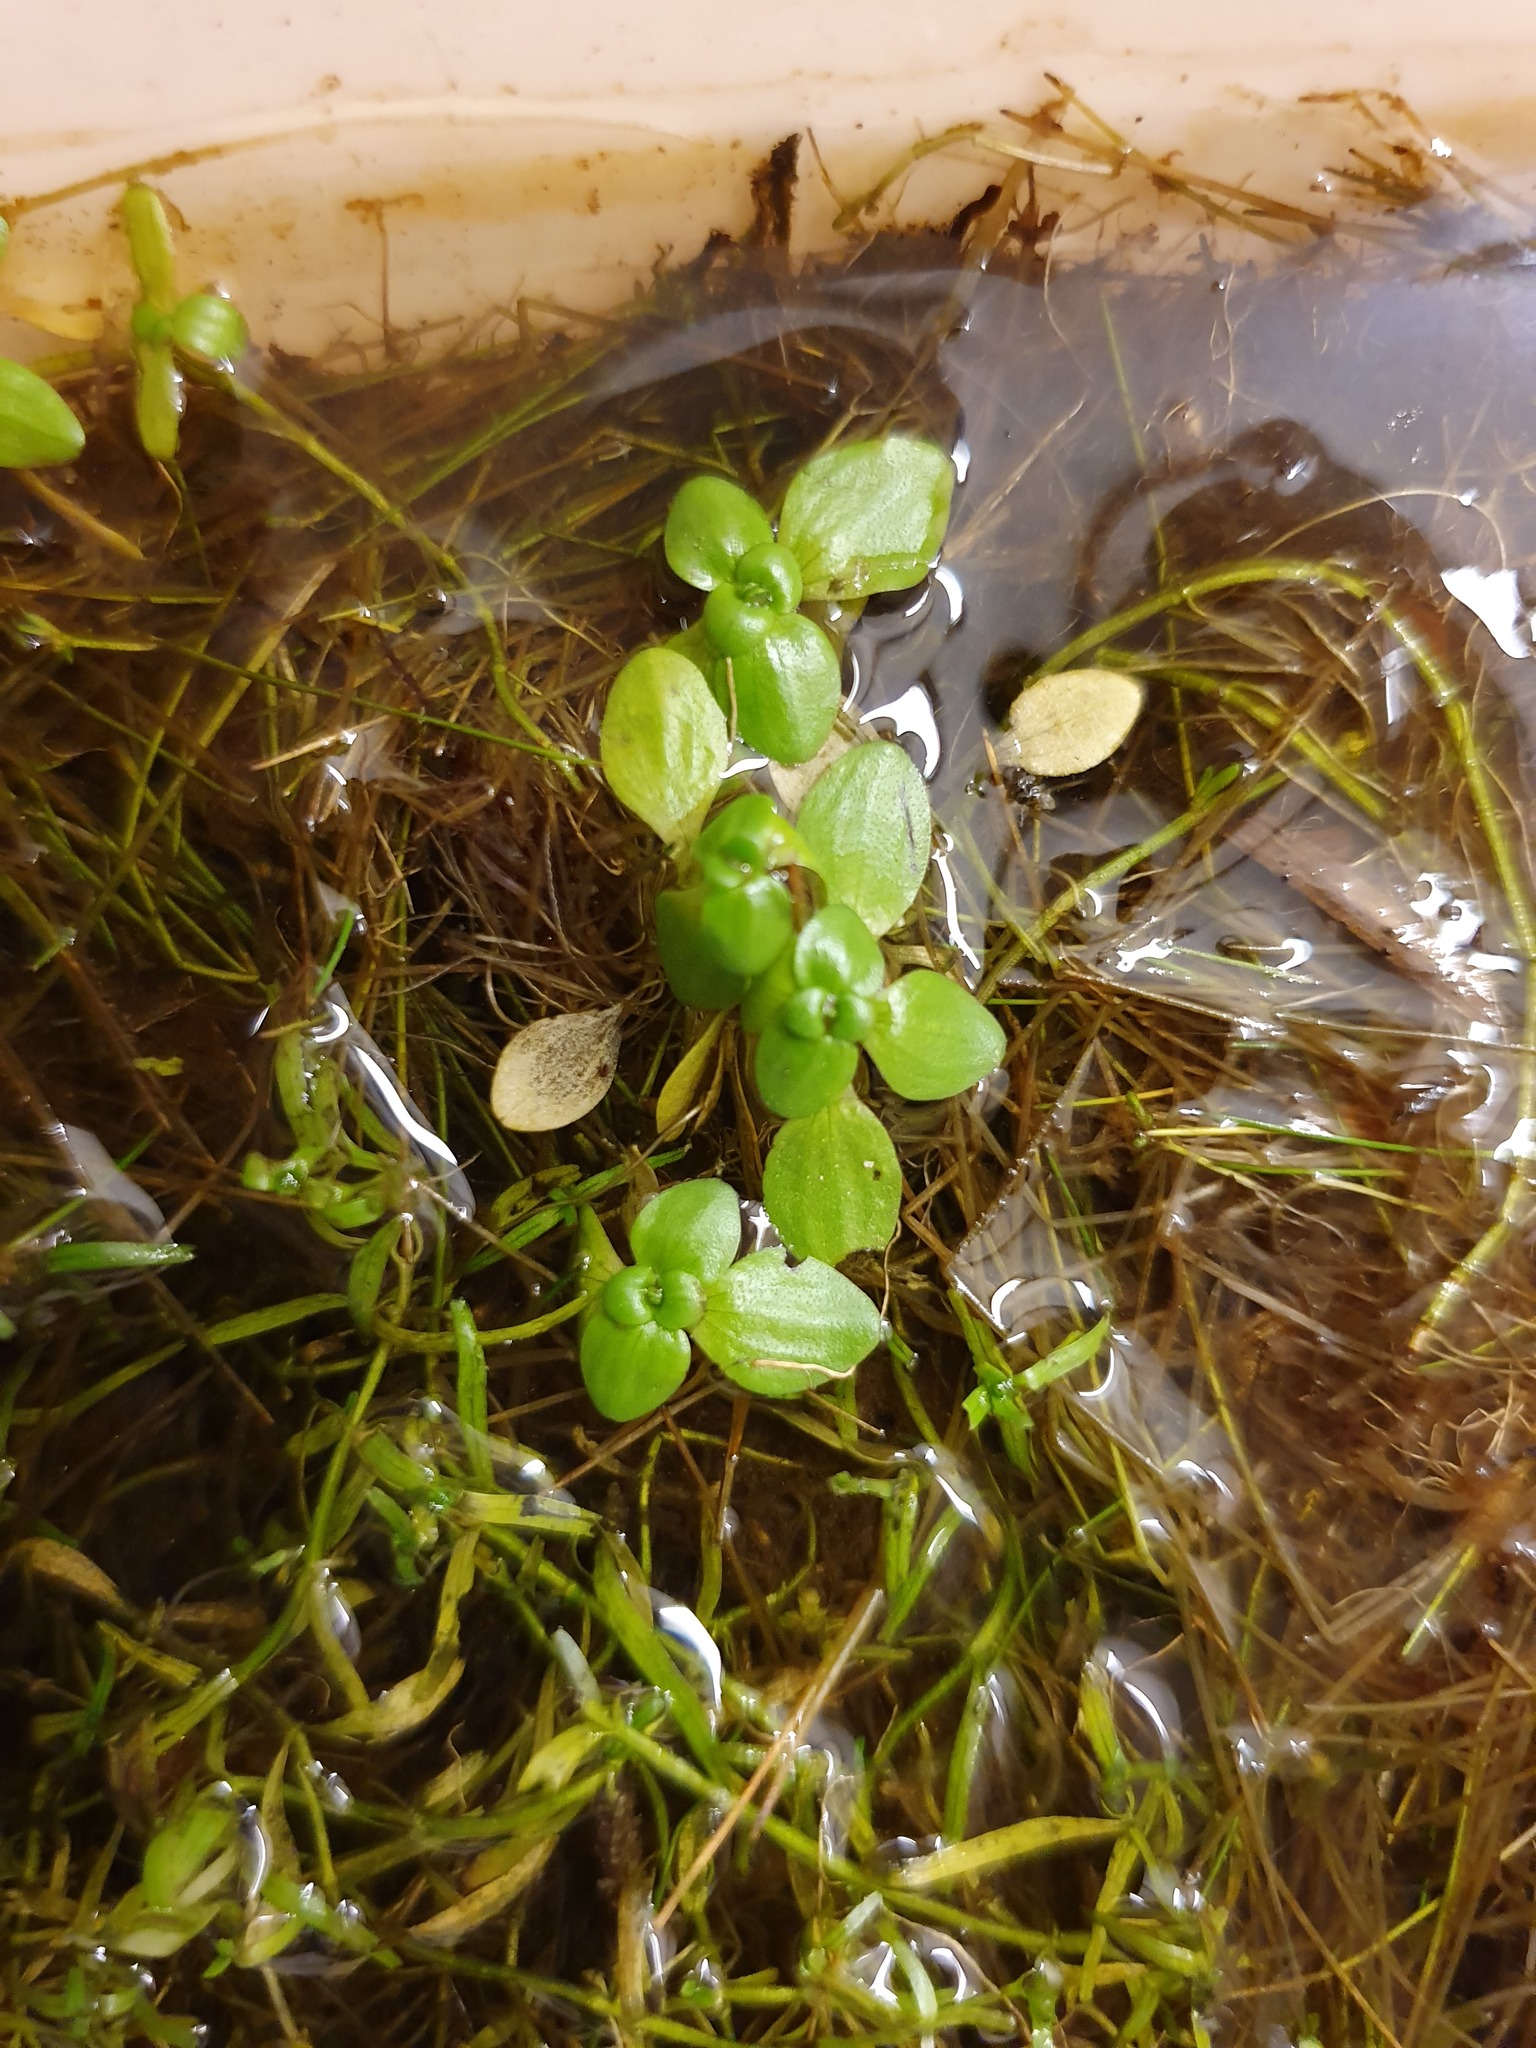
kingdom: Plantae
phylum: Tracheophyta
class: Magnoliopsida
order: Lamiales
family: Plantaginaceae
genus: Callitriche
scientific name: Callitriche stagnalis
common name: Common water-starwort
